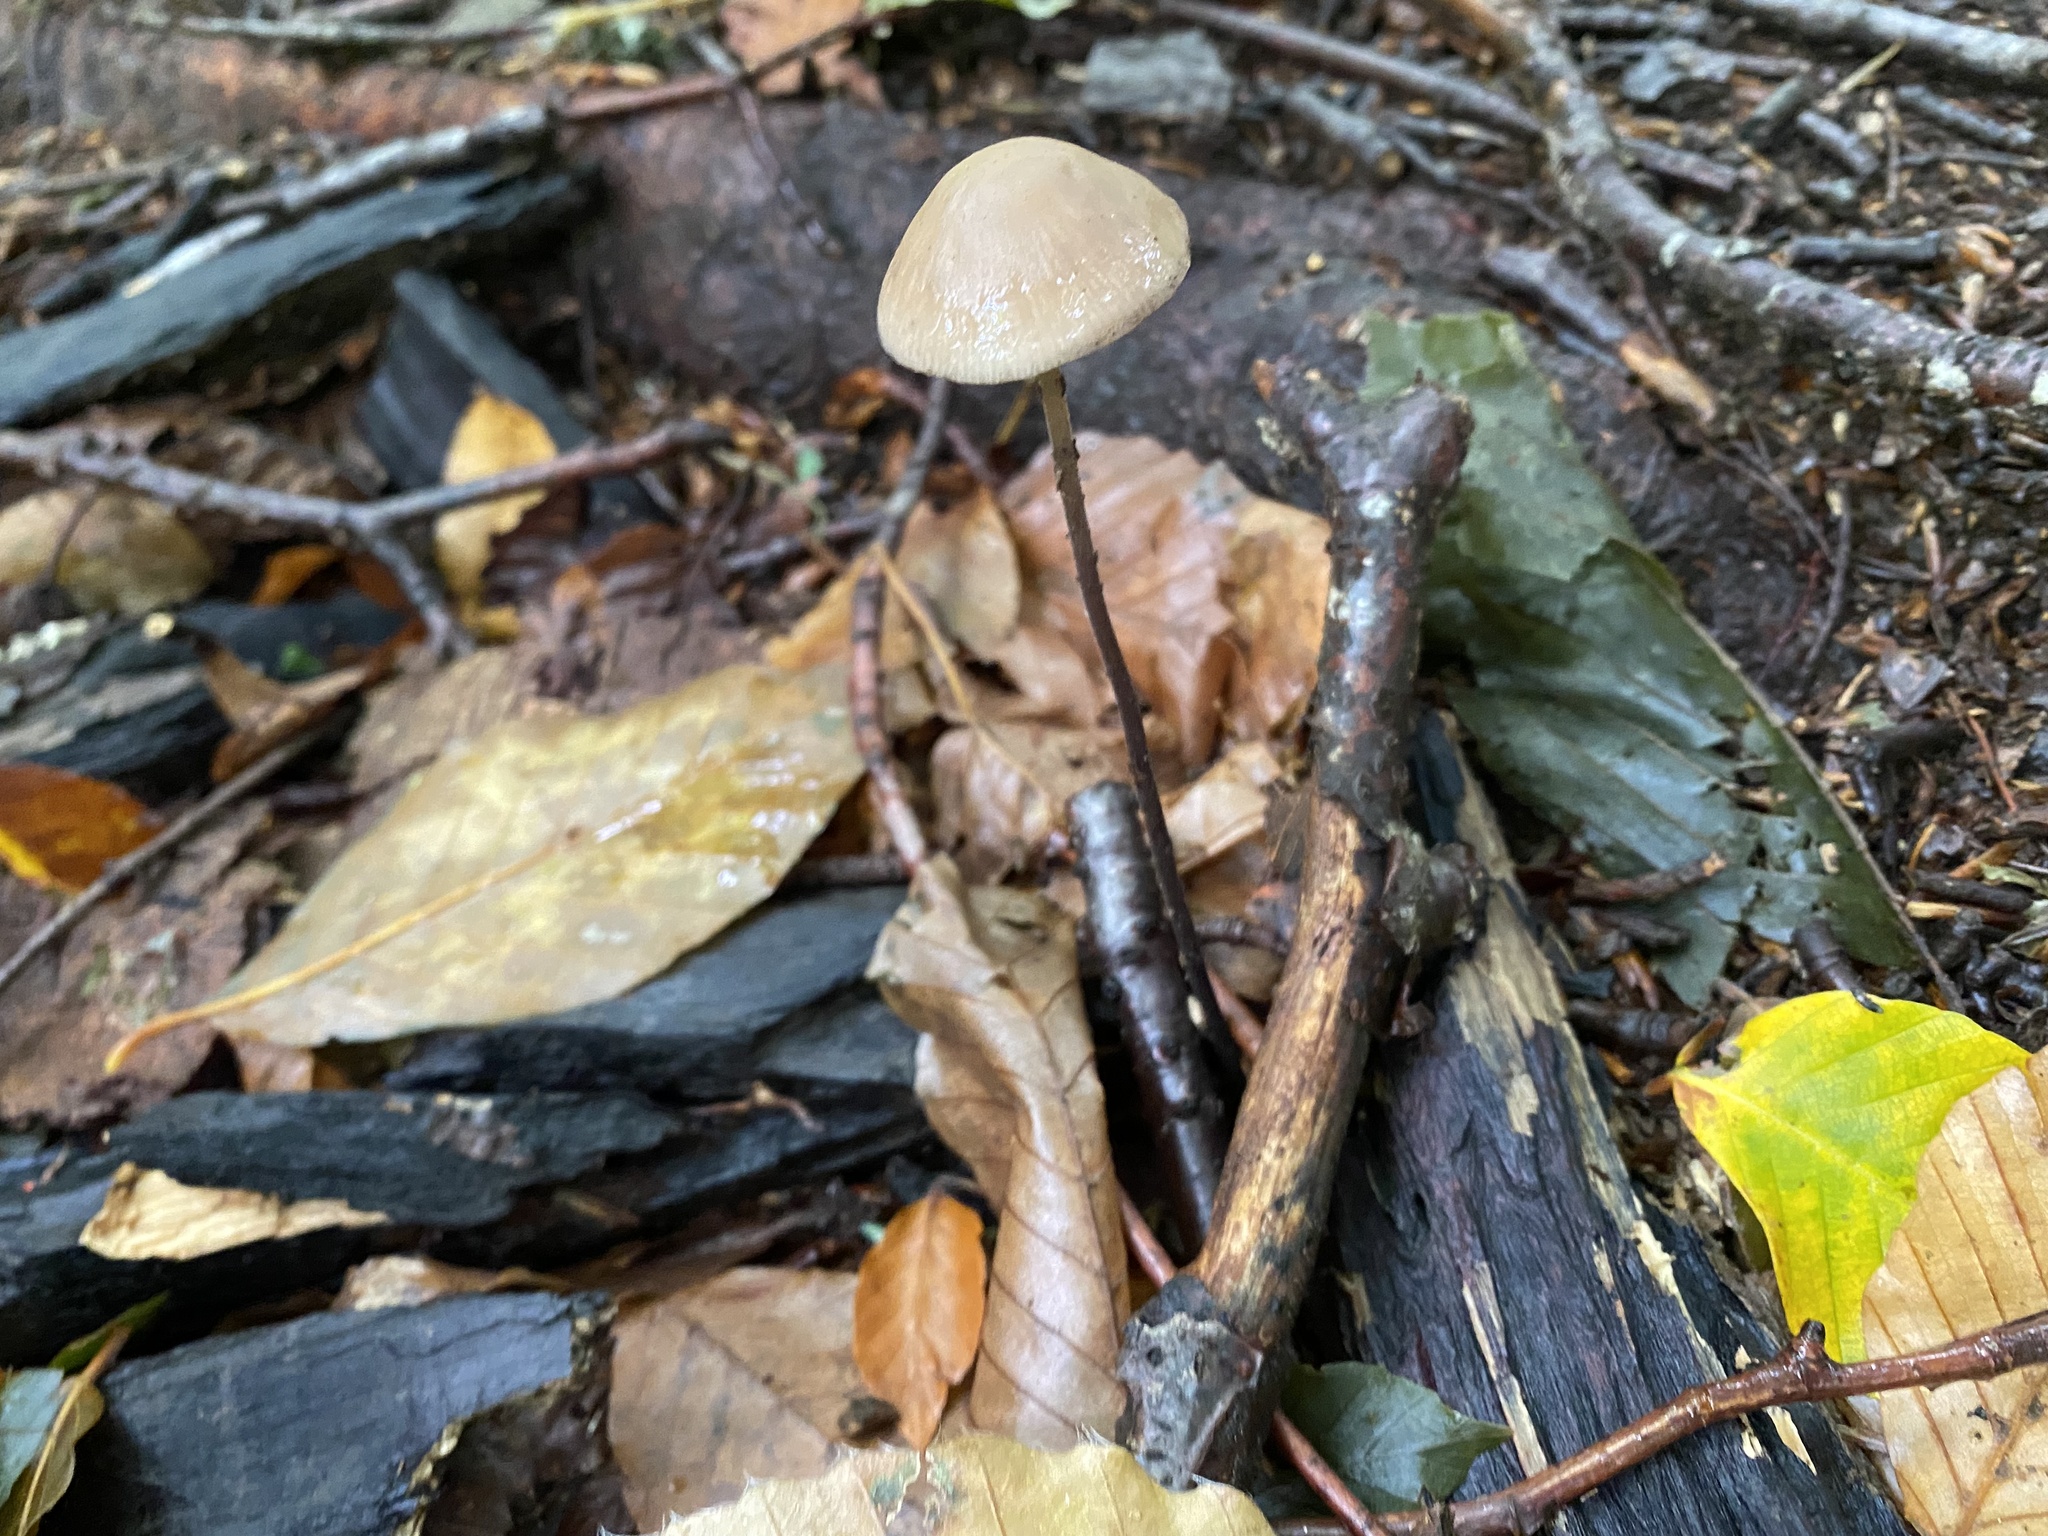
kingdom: Fungi
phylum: Basidiomycota
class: Agaricomycetes
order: Agaricales
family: Bolbitiaceae
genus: Conocybe
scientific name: Conocybe
